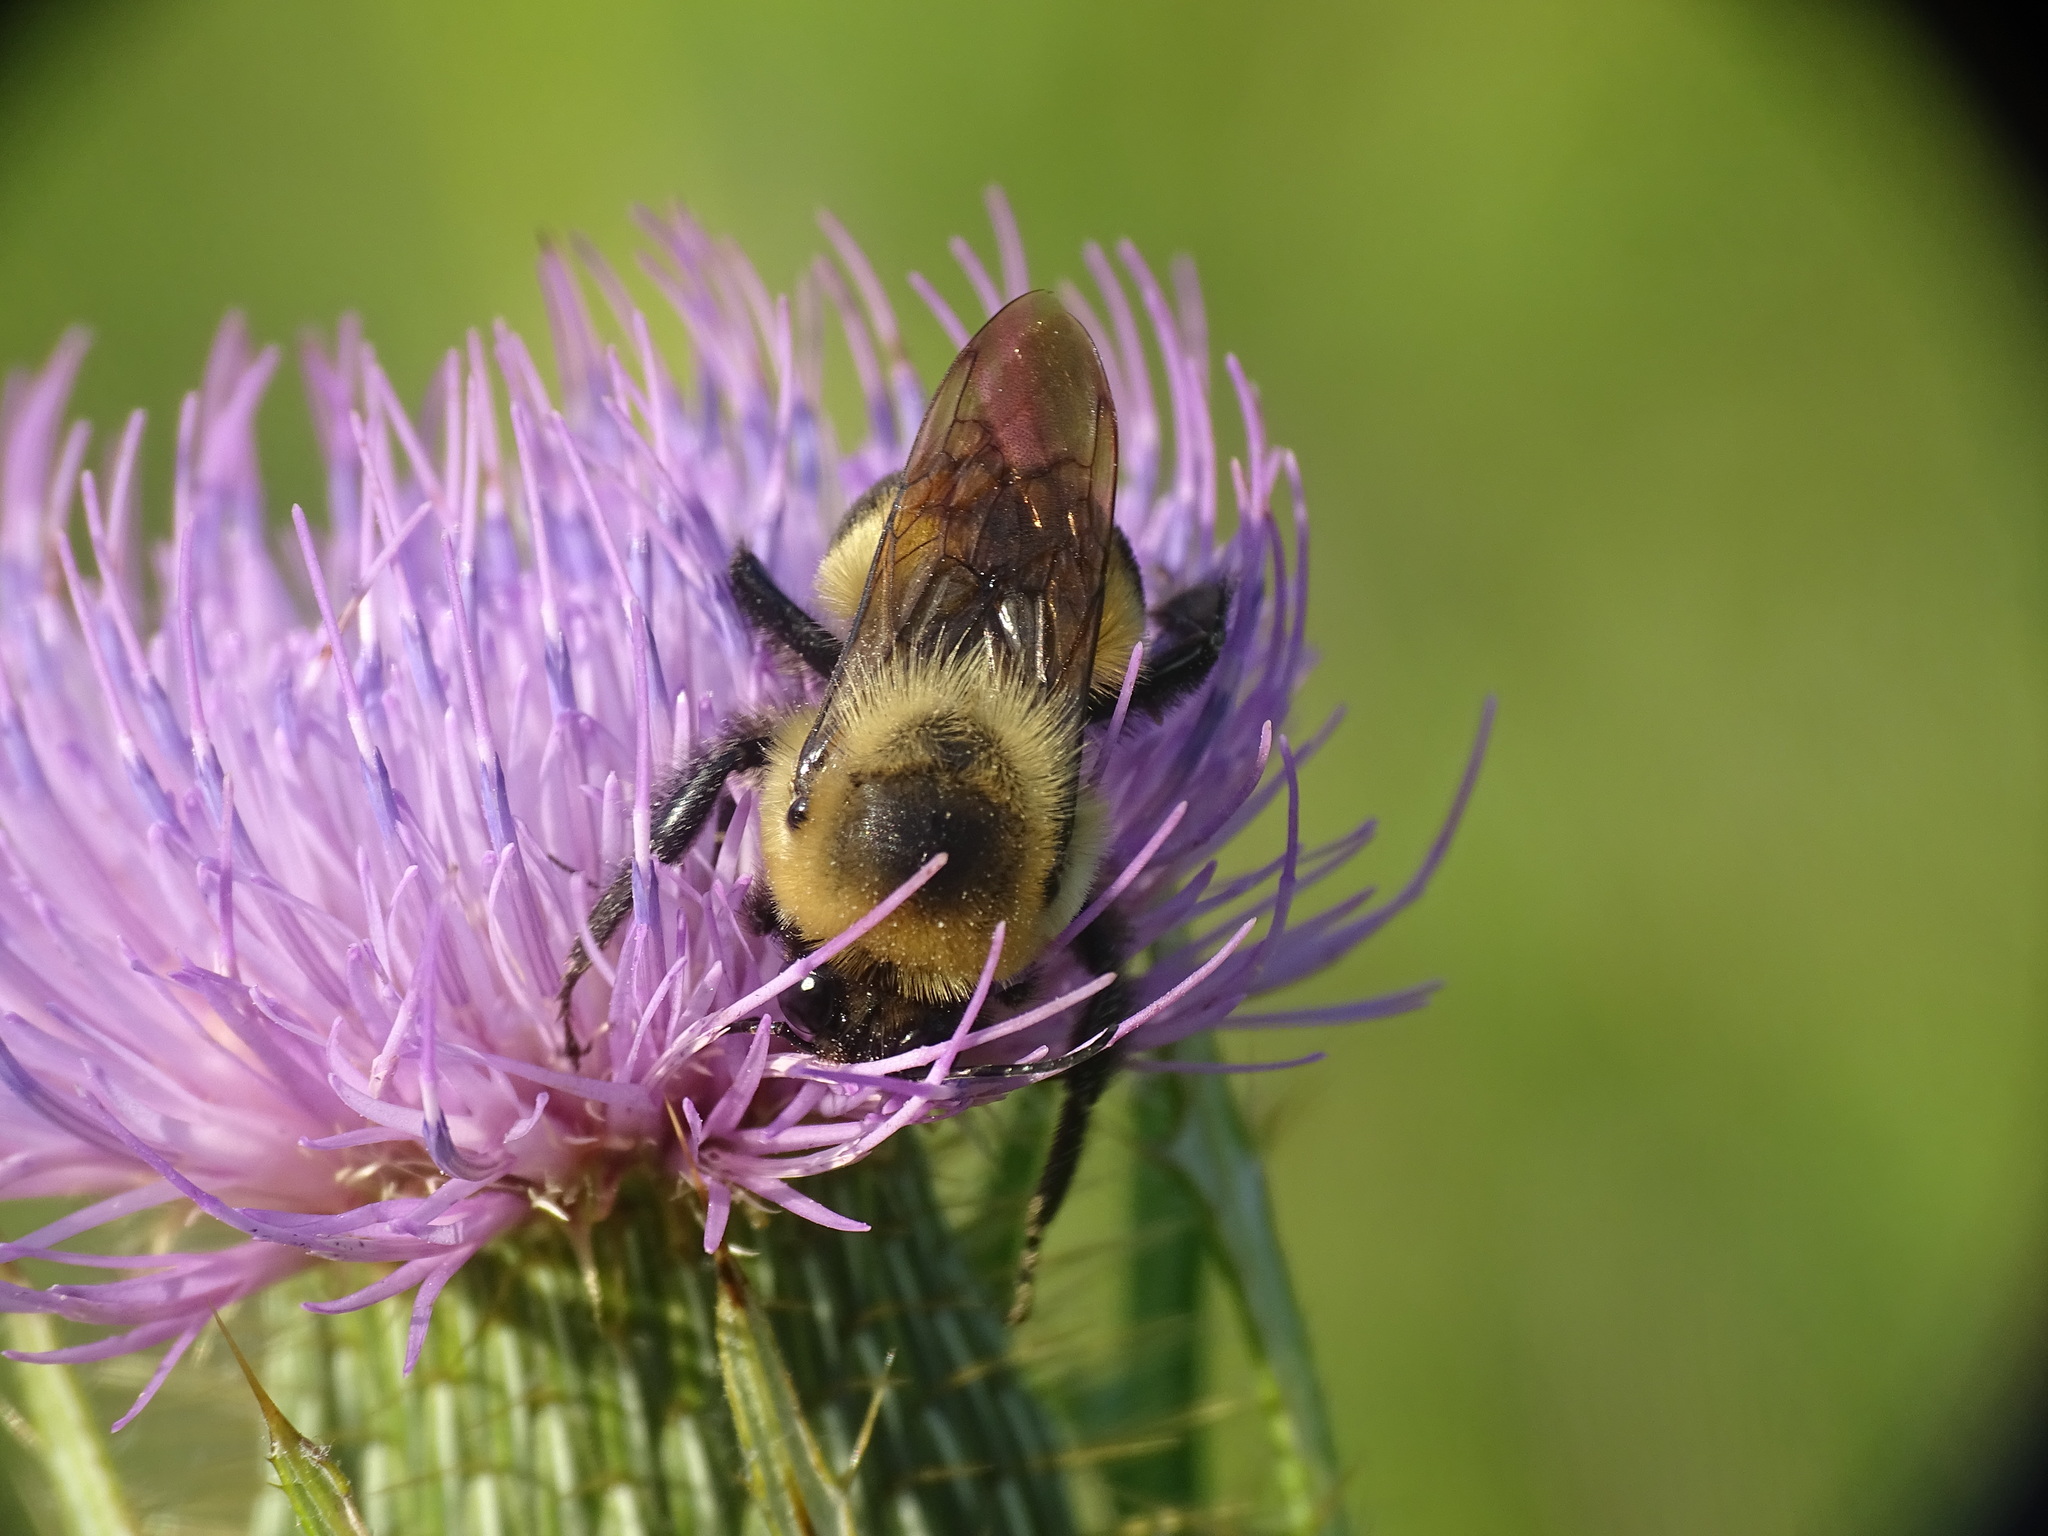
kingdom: Animalia
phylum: Arthropoda
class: Insecta
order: Hymenoptera
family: Apidae
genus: Bombus
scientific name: Bombus griseocollis
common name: Brown-belted bumble bee
